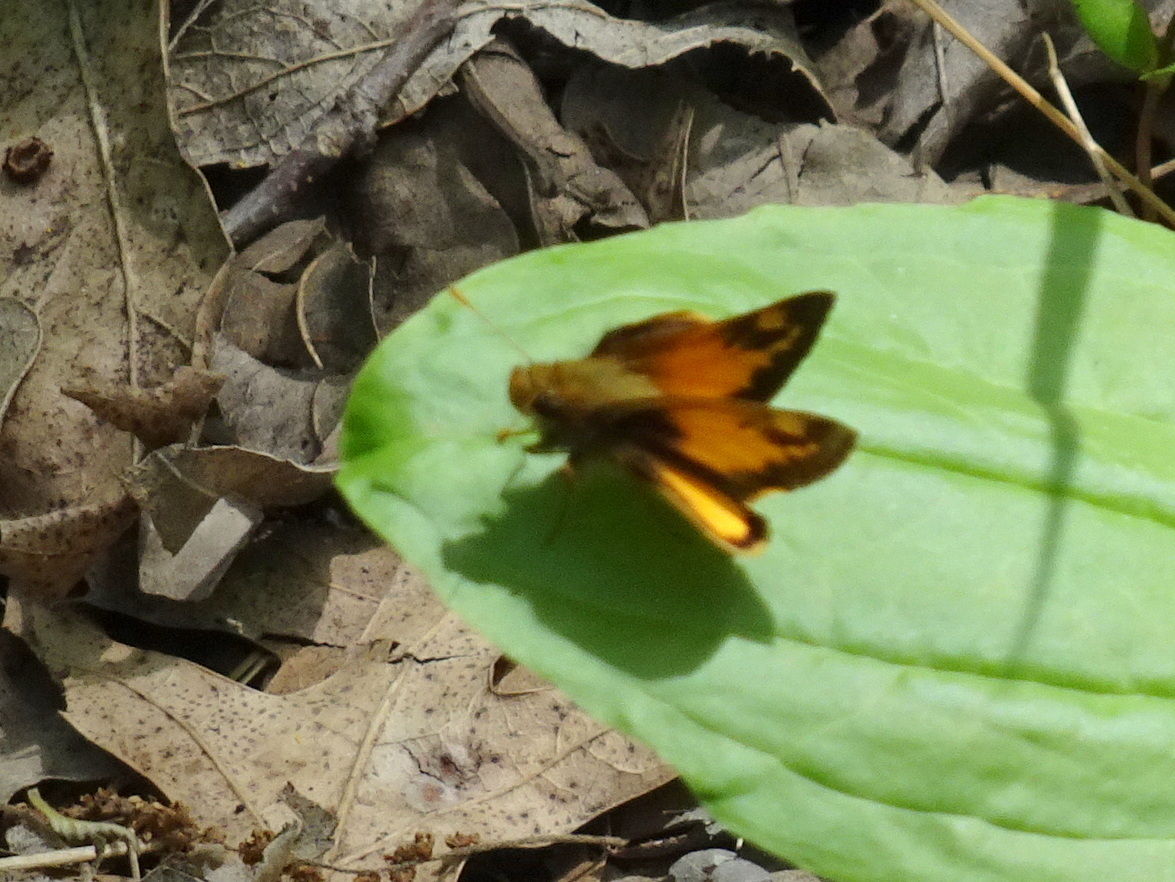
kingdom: Animalia
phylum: Arthropoda
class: Insecta
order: Lepidoptera
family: Hesperiidae
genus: Lon
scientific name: Lon zabulon
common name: Zabulon skipper
